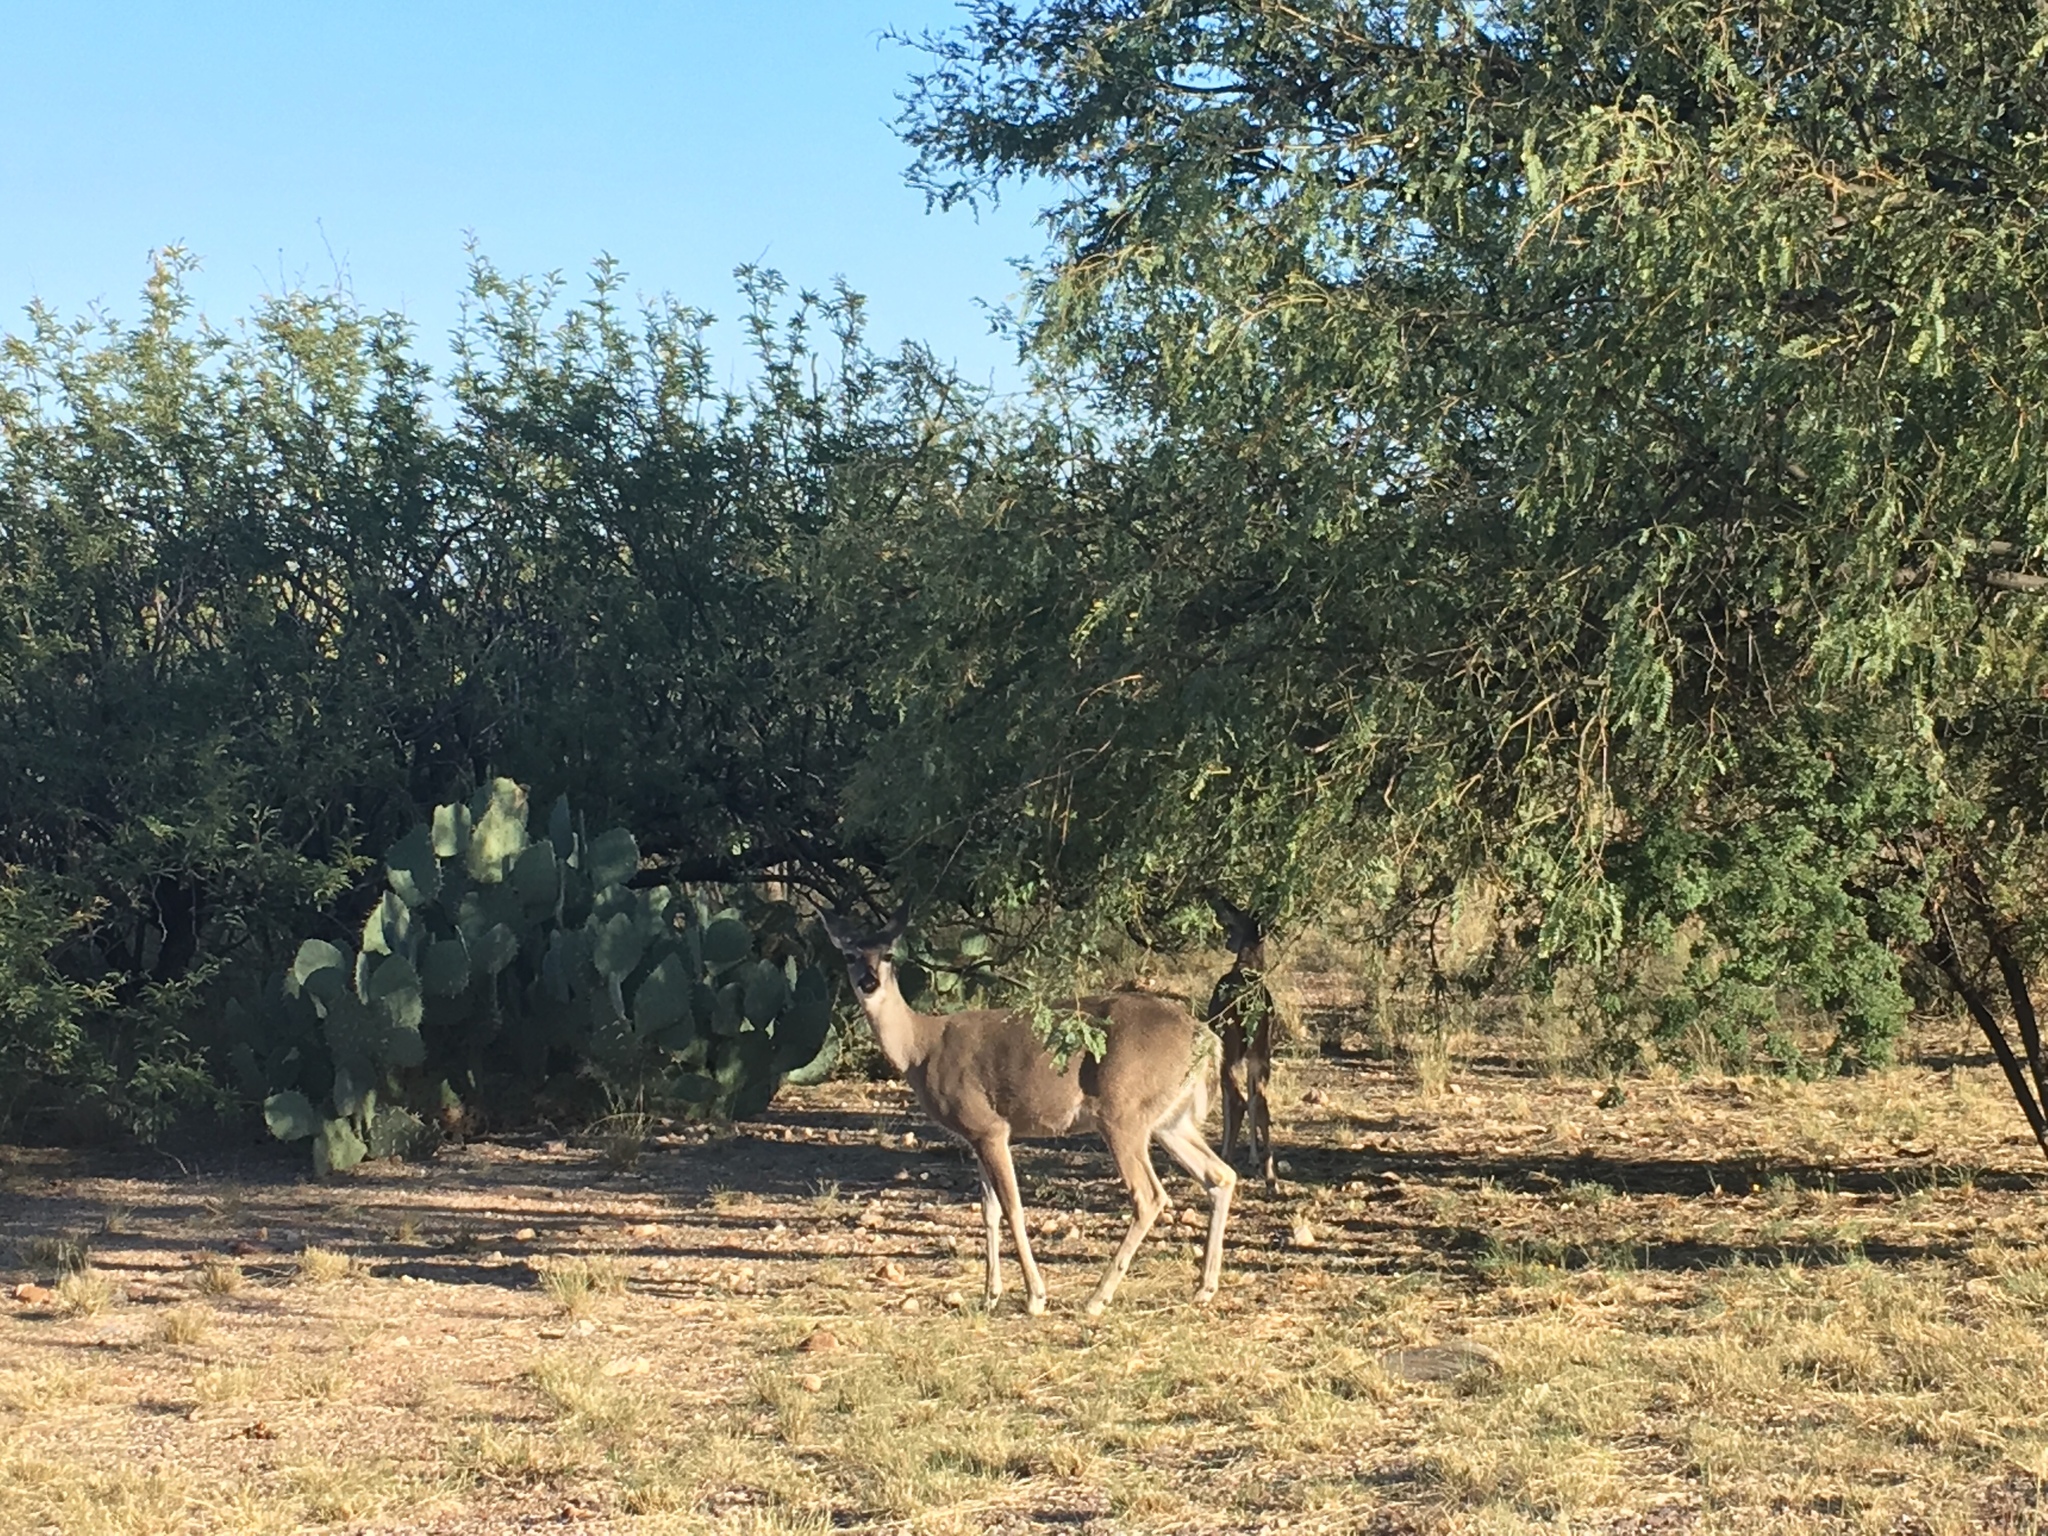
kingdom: Animalia
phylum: Chordata
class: Mammalia
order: Artiodactyla
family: Cervidae
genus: Odocoileus
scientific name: Odocoileus virginianus
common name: White-tailed deer
